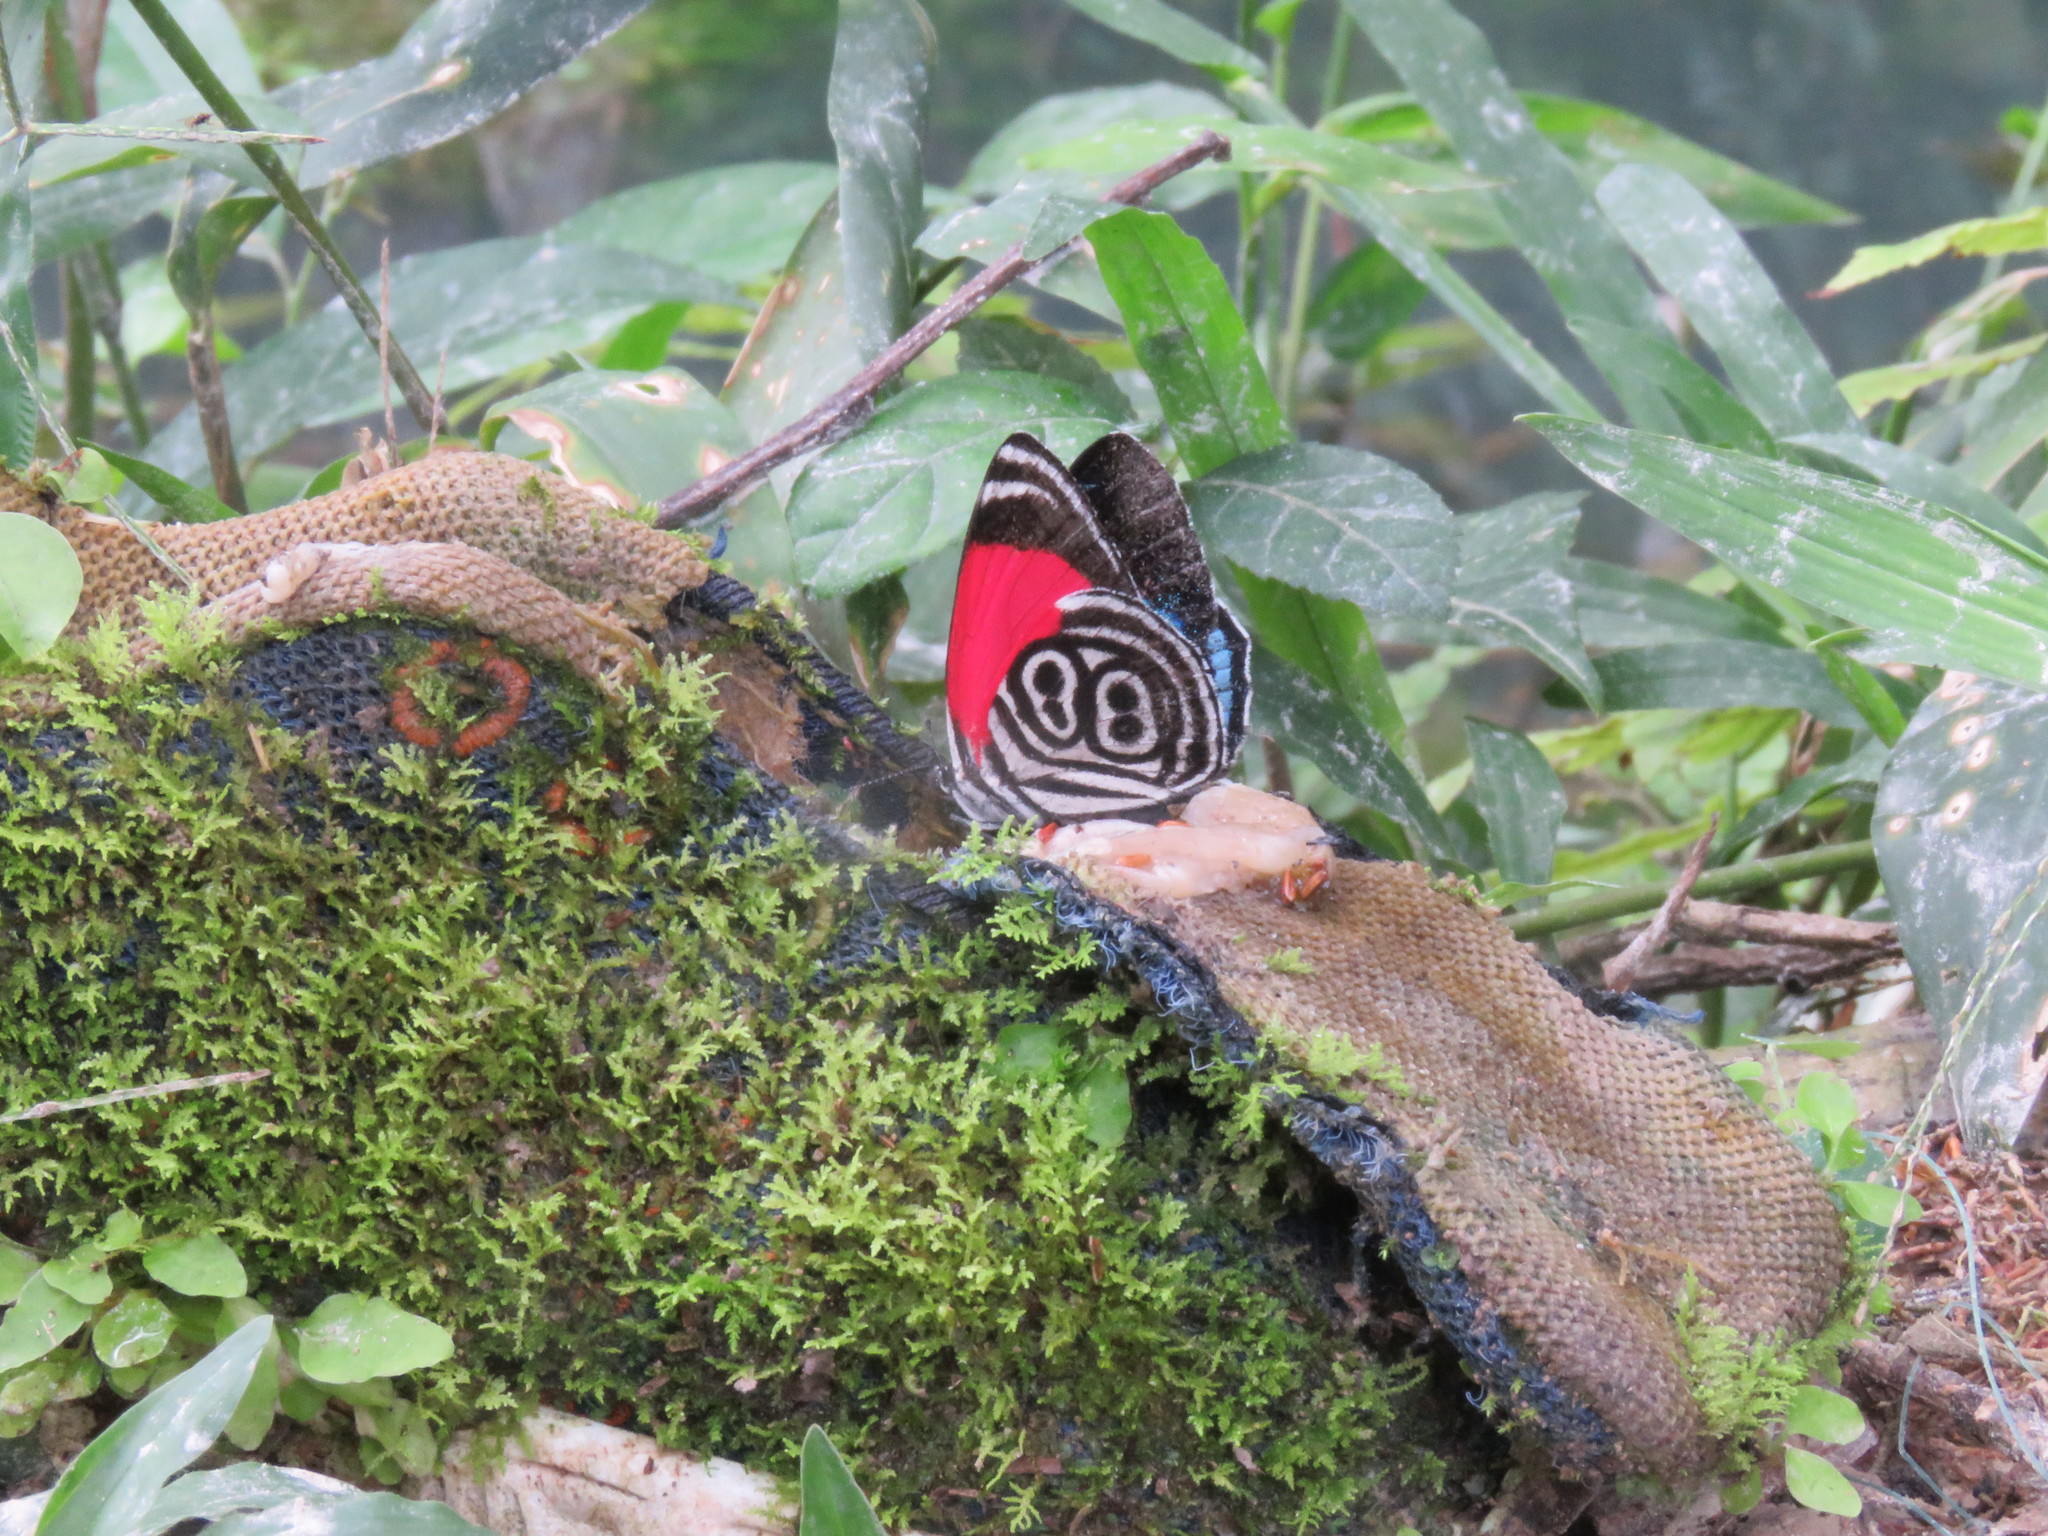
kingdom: Animalia
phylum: Arthropoda
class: Insecta
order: Lepidoptera
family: Nymphalidae
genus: Diaethria
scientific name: Diaethria clymena
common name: Widespread eighty-eight
